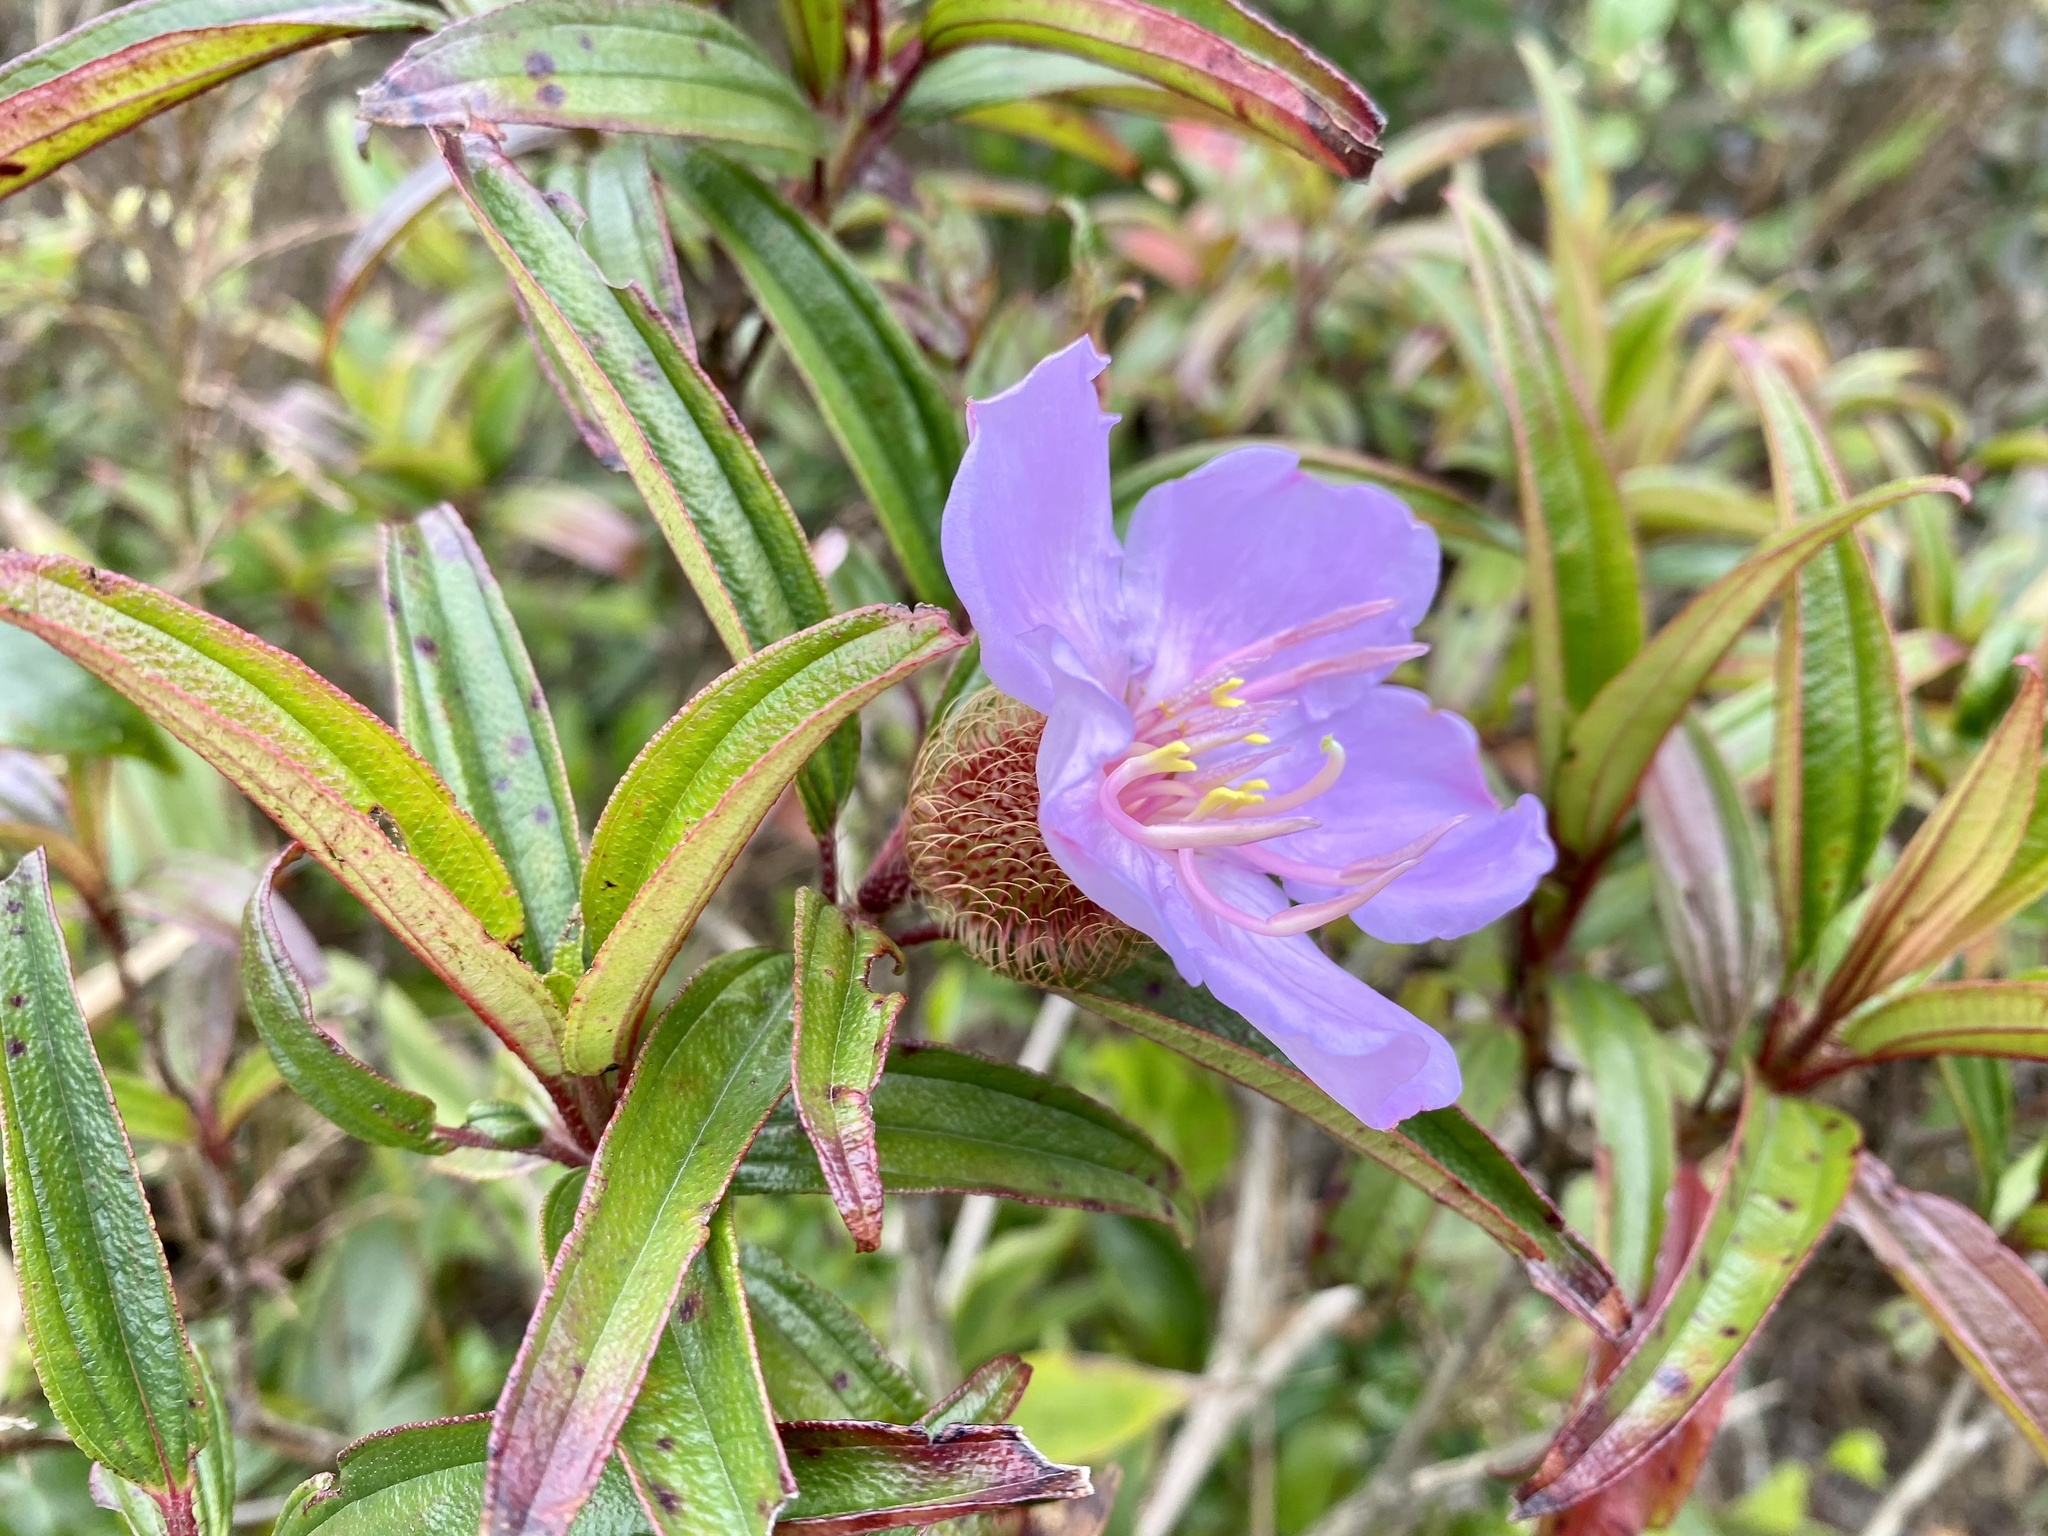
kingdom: Plantae
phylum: Tracheophyta
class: Magnoliopsida
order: Myrtales
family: Melastomataceae
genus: Melastoma
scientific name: Melastoma sanguineum
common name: Red melastome
